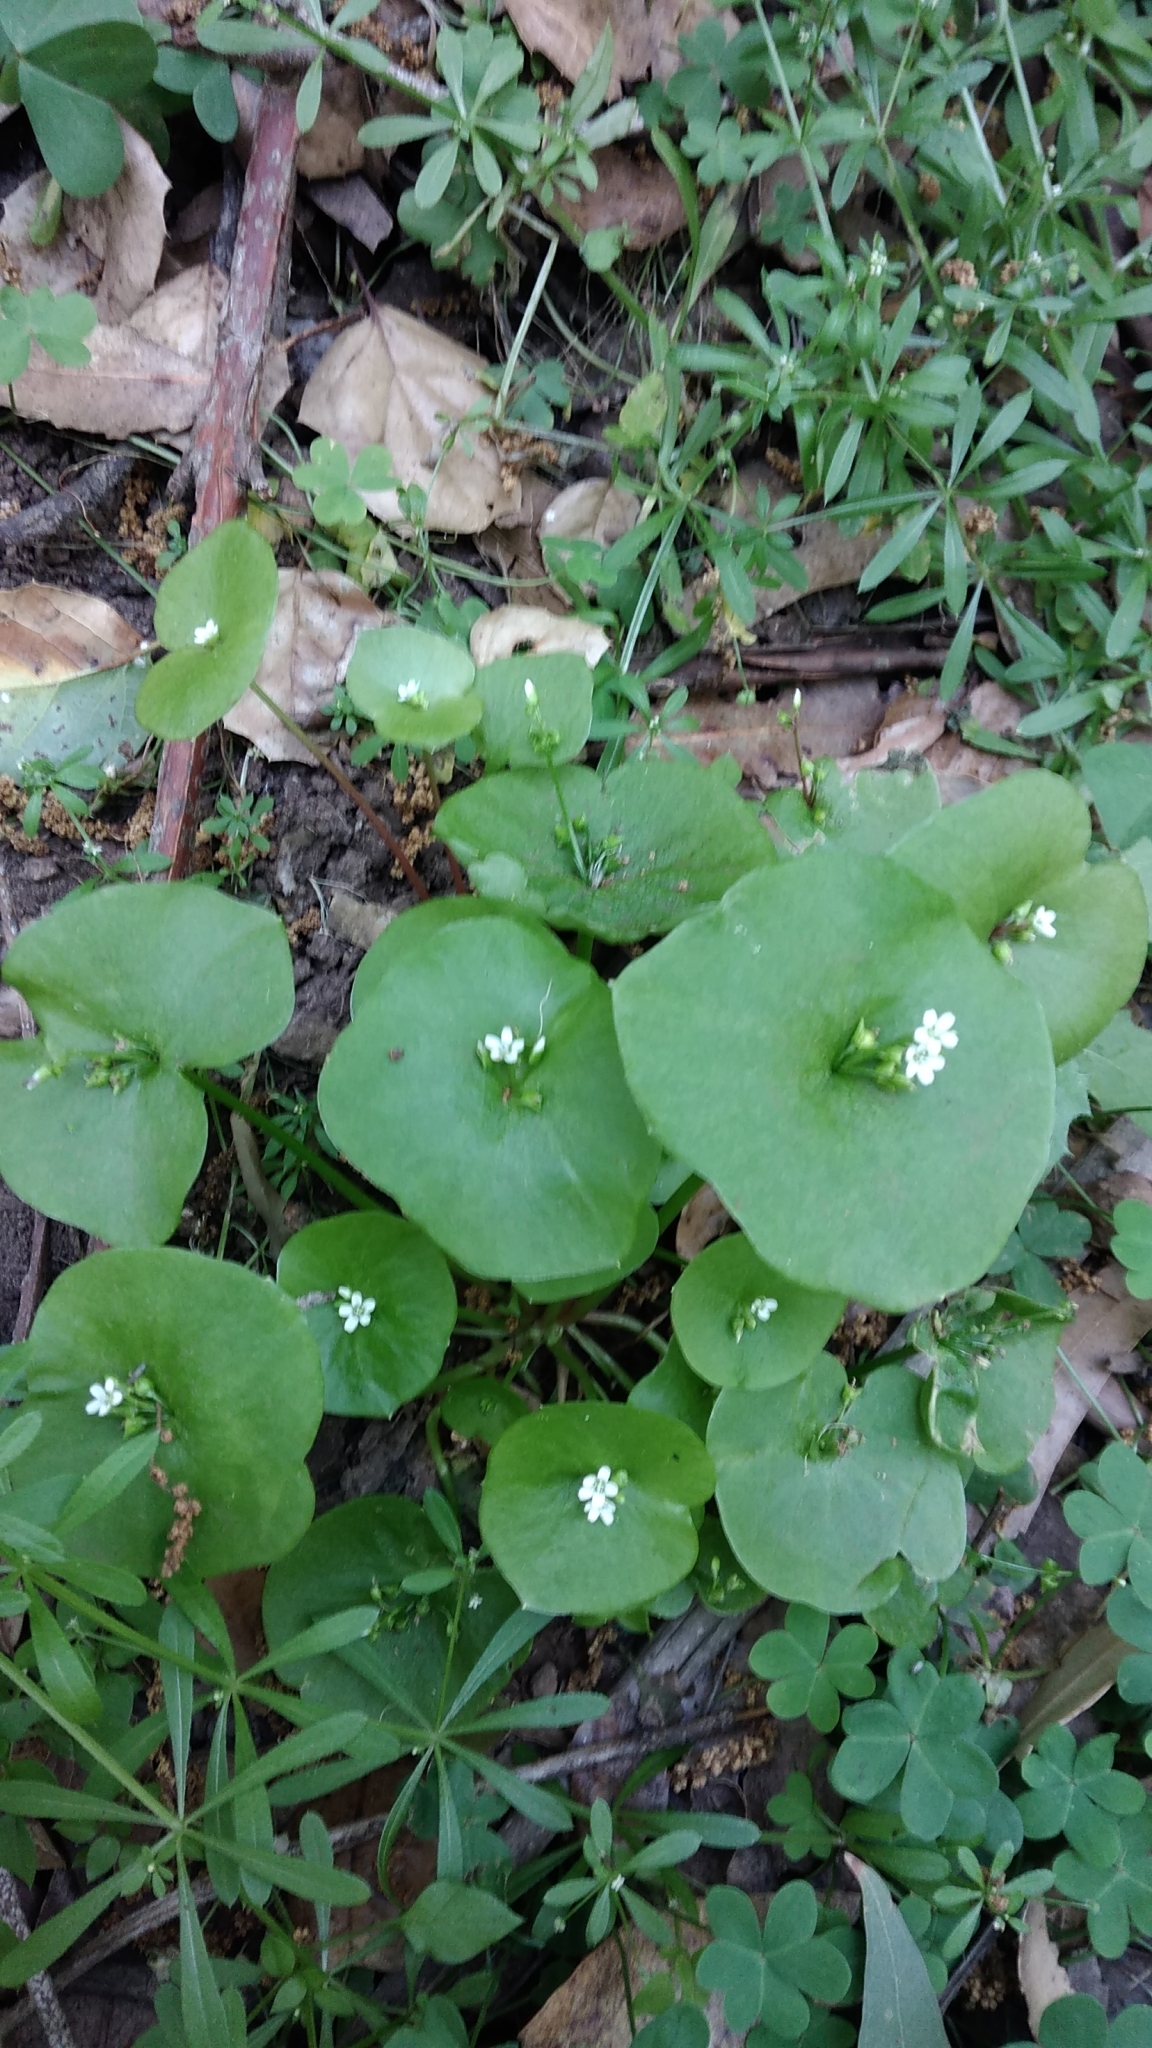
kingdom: Plantae
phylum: Tracheophyta
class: Magnoliopsida
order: Caryophyllales
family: Montiaceae
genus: Claytonia
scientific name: Claytonia perfoliata
